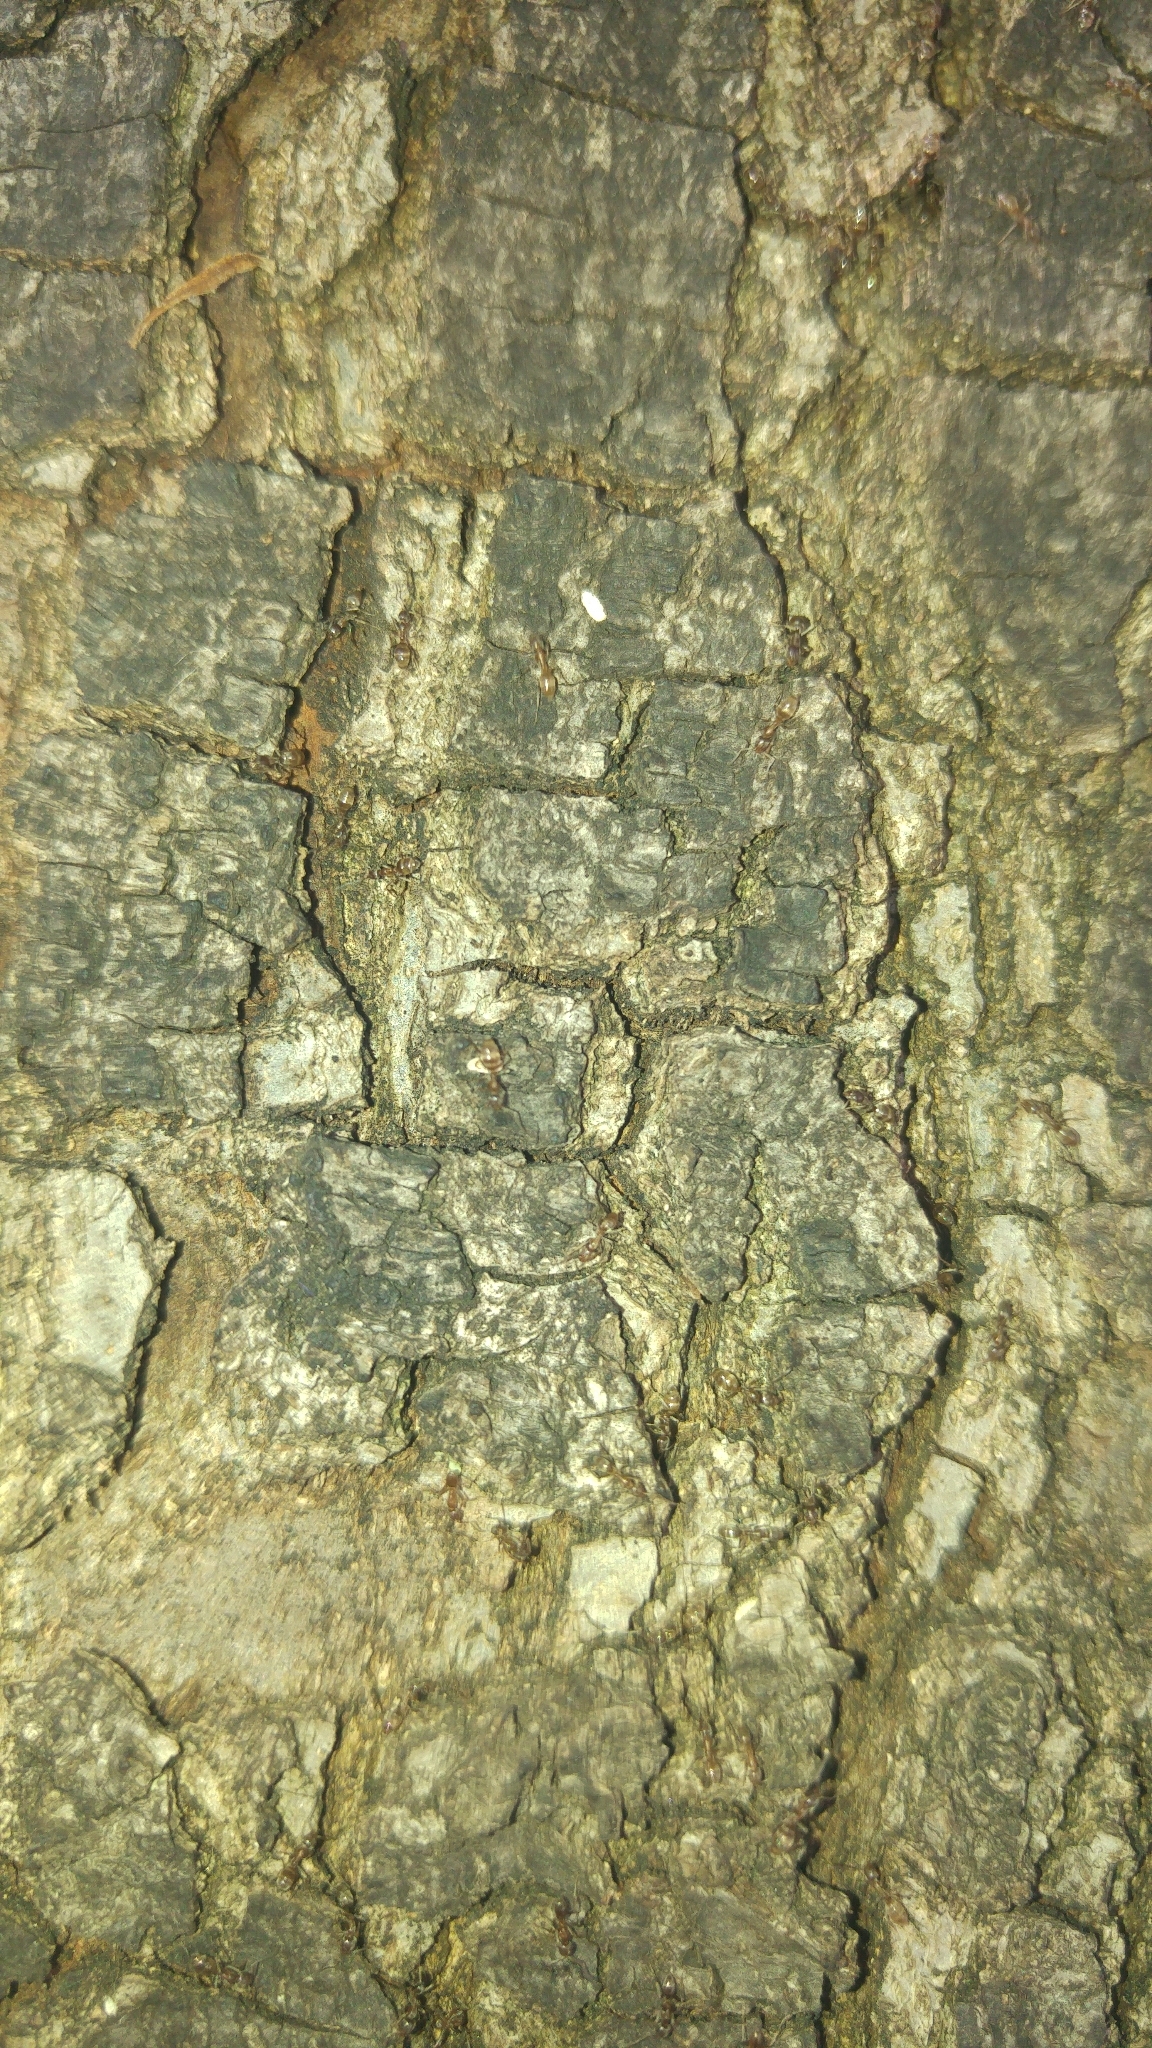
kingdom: Animalia
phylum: Arthropoda
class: Insecta
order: Hymenoptera
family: Formicidae
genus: Linepithema
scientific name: Linepithema humile
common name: Argentine ant
